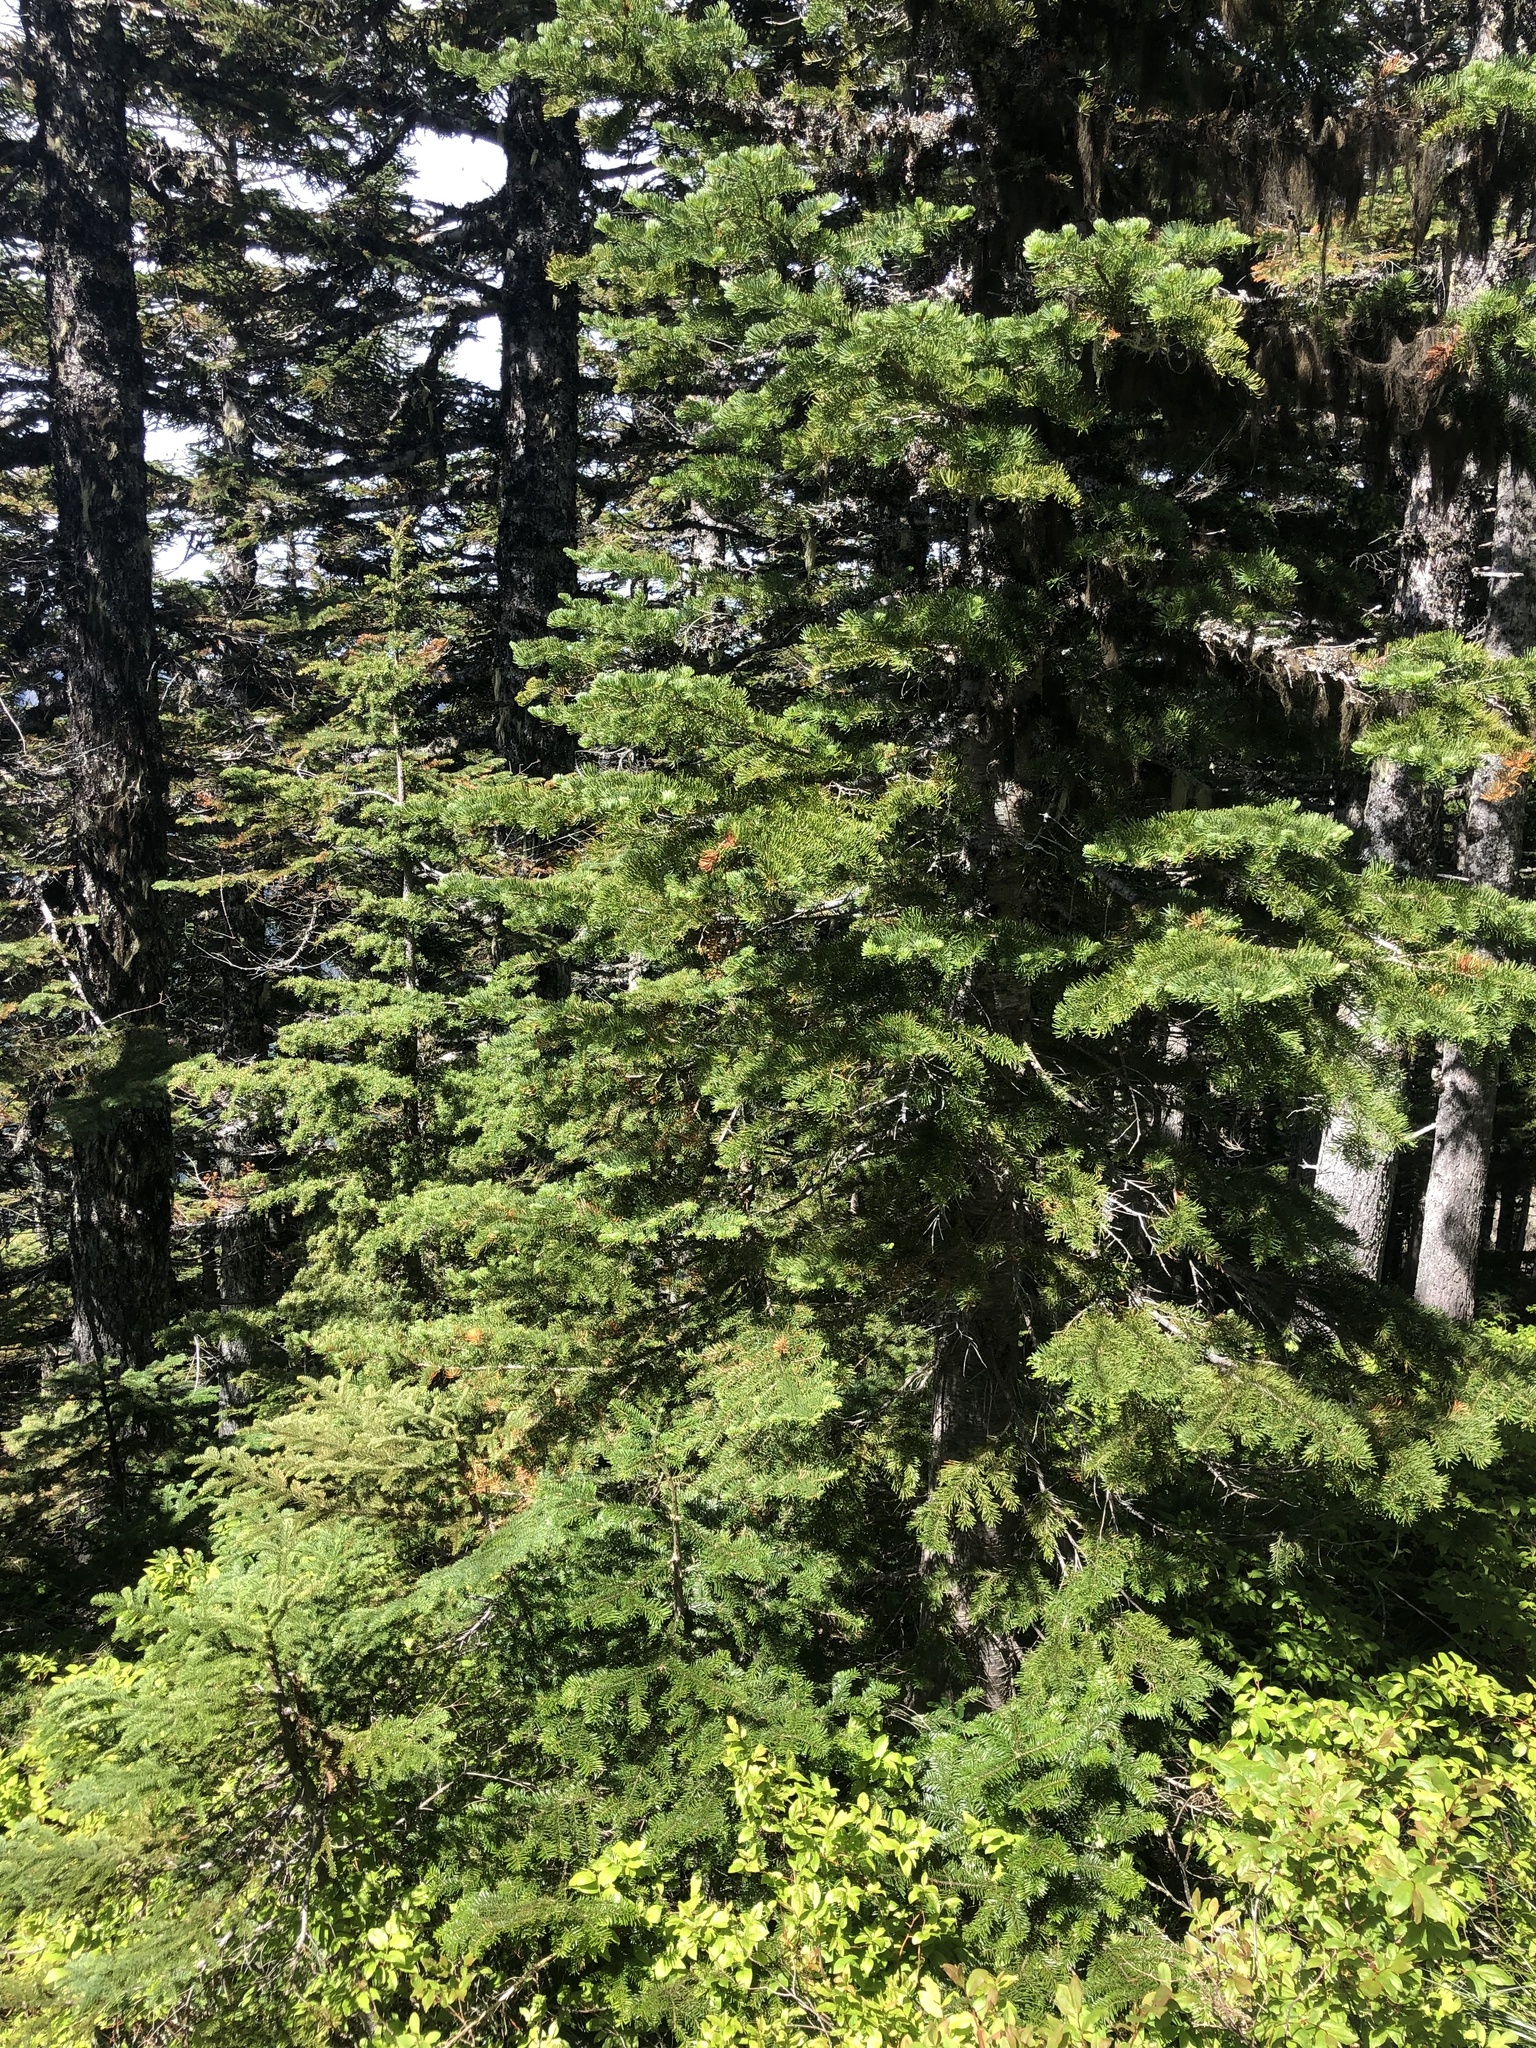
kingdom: Plantae
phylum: Tracheophyta
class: Pinopsida
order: Pinales
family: Pinaceae
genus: Abies
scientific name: Abies lasiocarpa
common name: Subalpine fir
